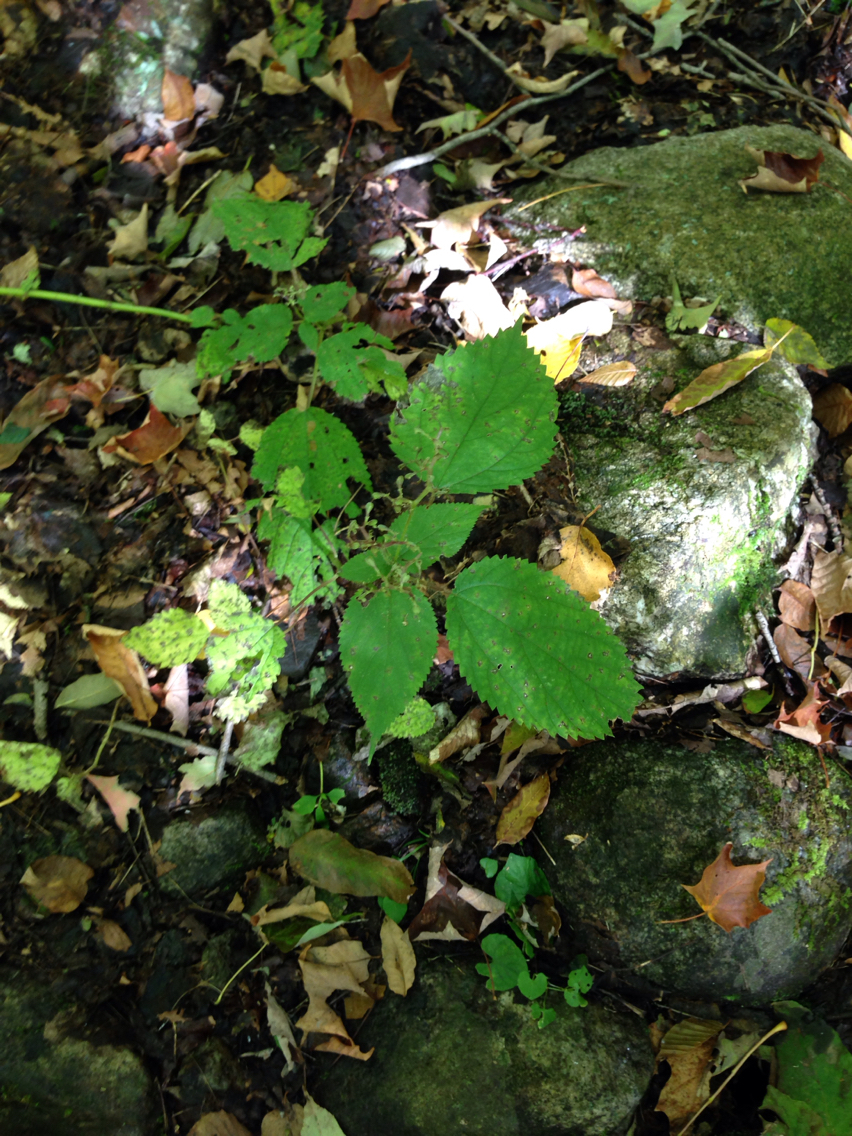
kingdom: Plantae
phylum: Tracheophyta
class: Magnoliopsida
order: Rosales
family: Urticaceae
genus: Laportea
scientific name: Laportea canadensis
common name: Canada nettle
